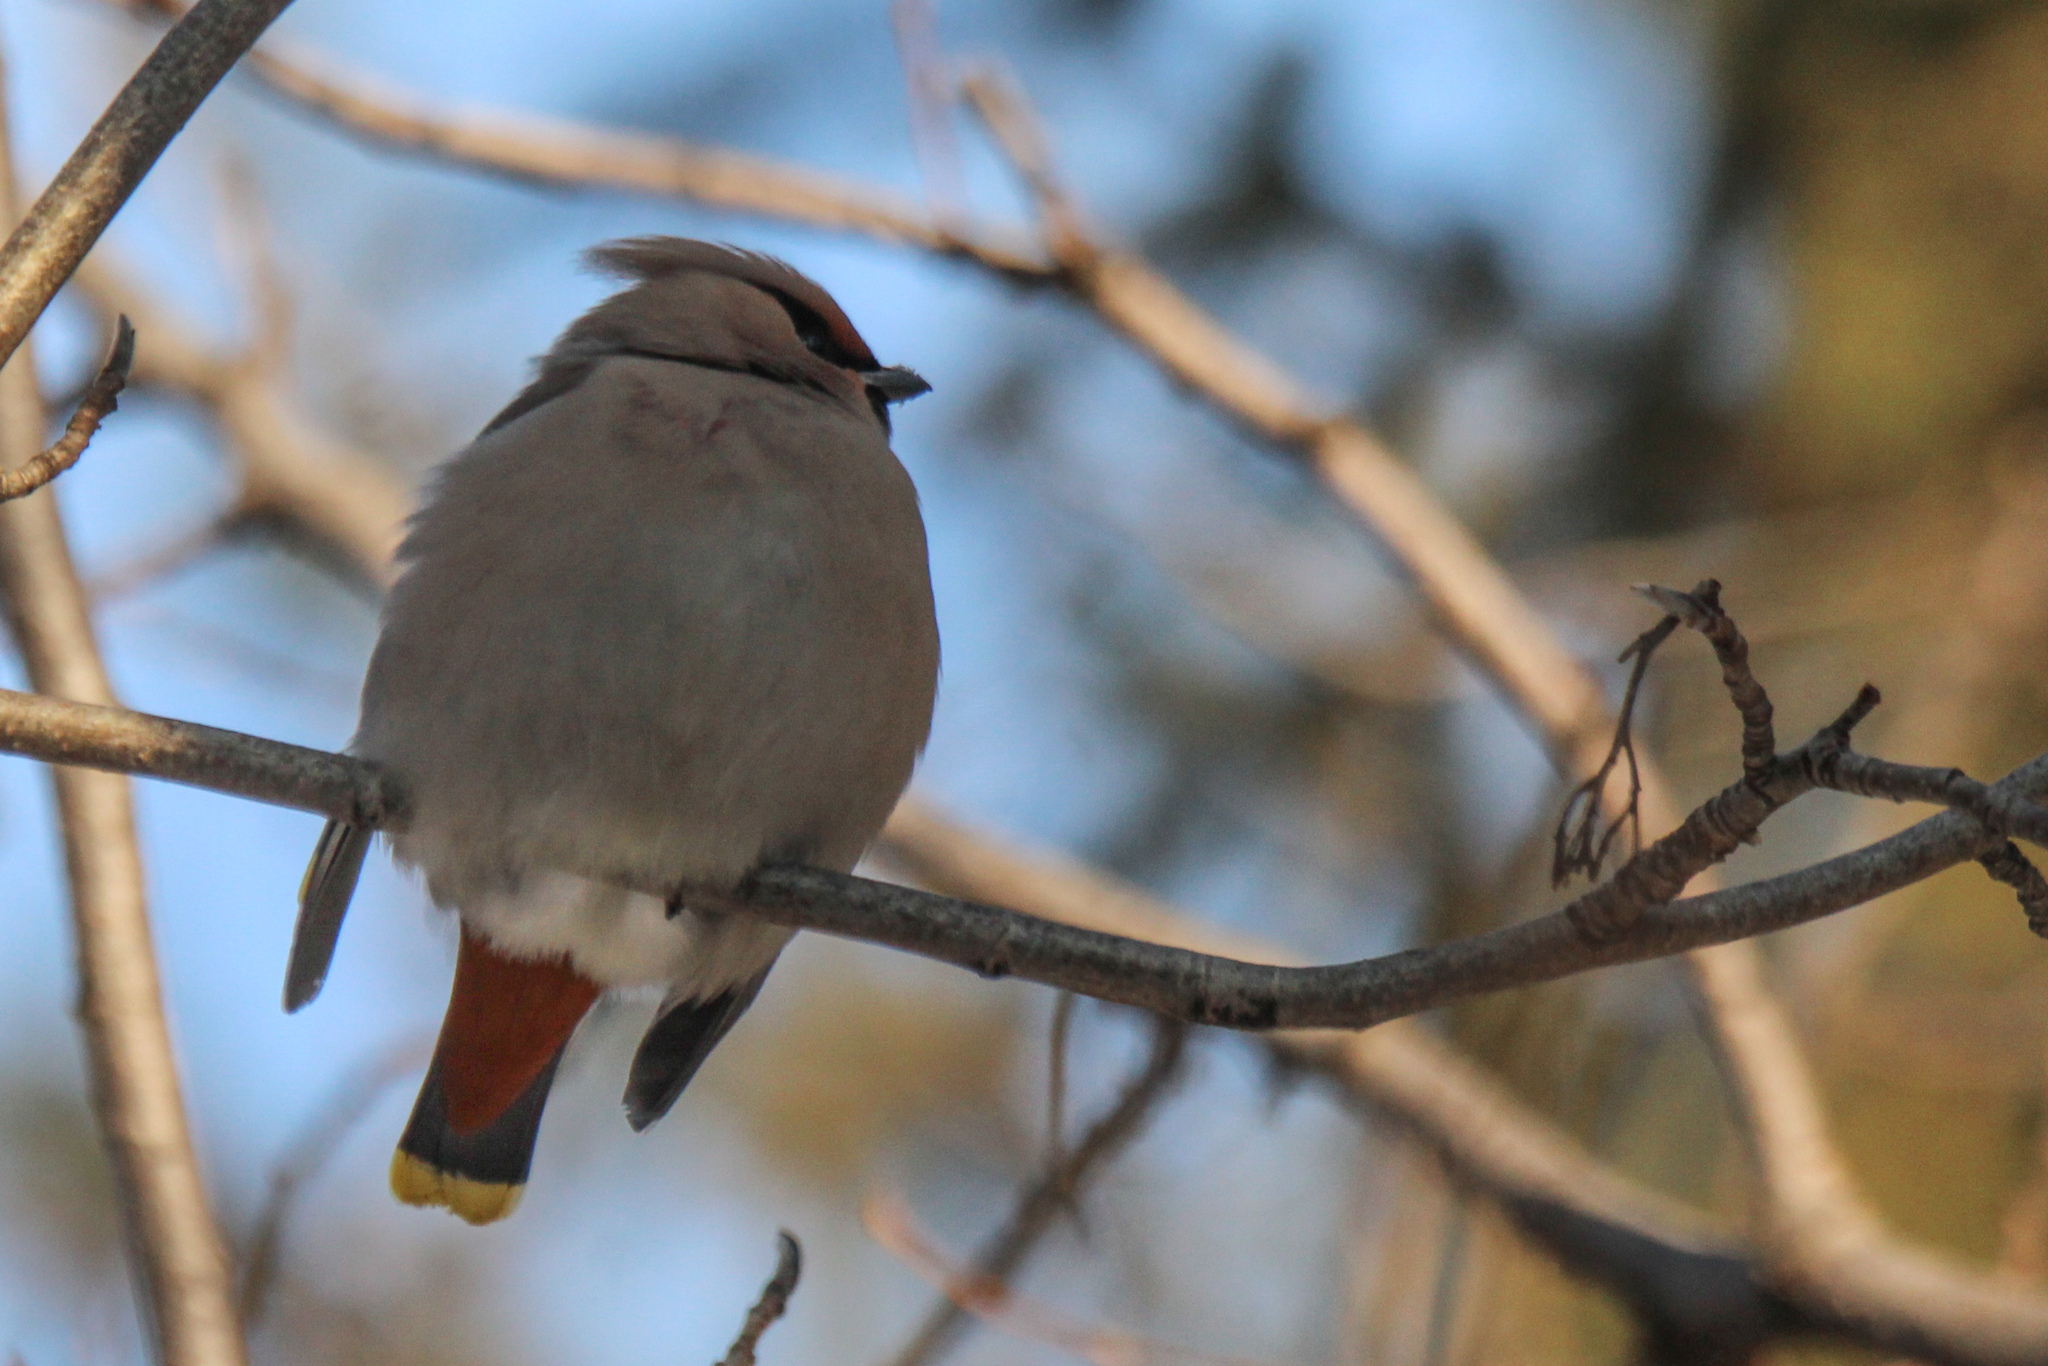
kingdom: Animalia
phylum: Chordata
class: Aves
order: Passeriformes
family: Bombycillidae
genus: Bombycilla
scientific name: Bombycilla garrulus
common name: Bohemian waxwing
